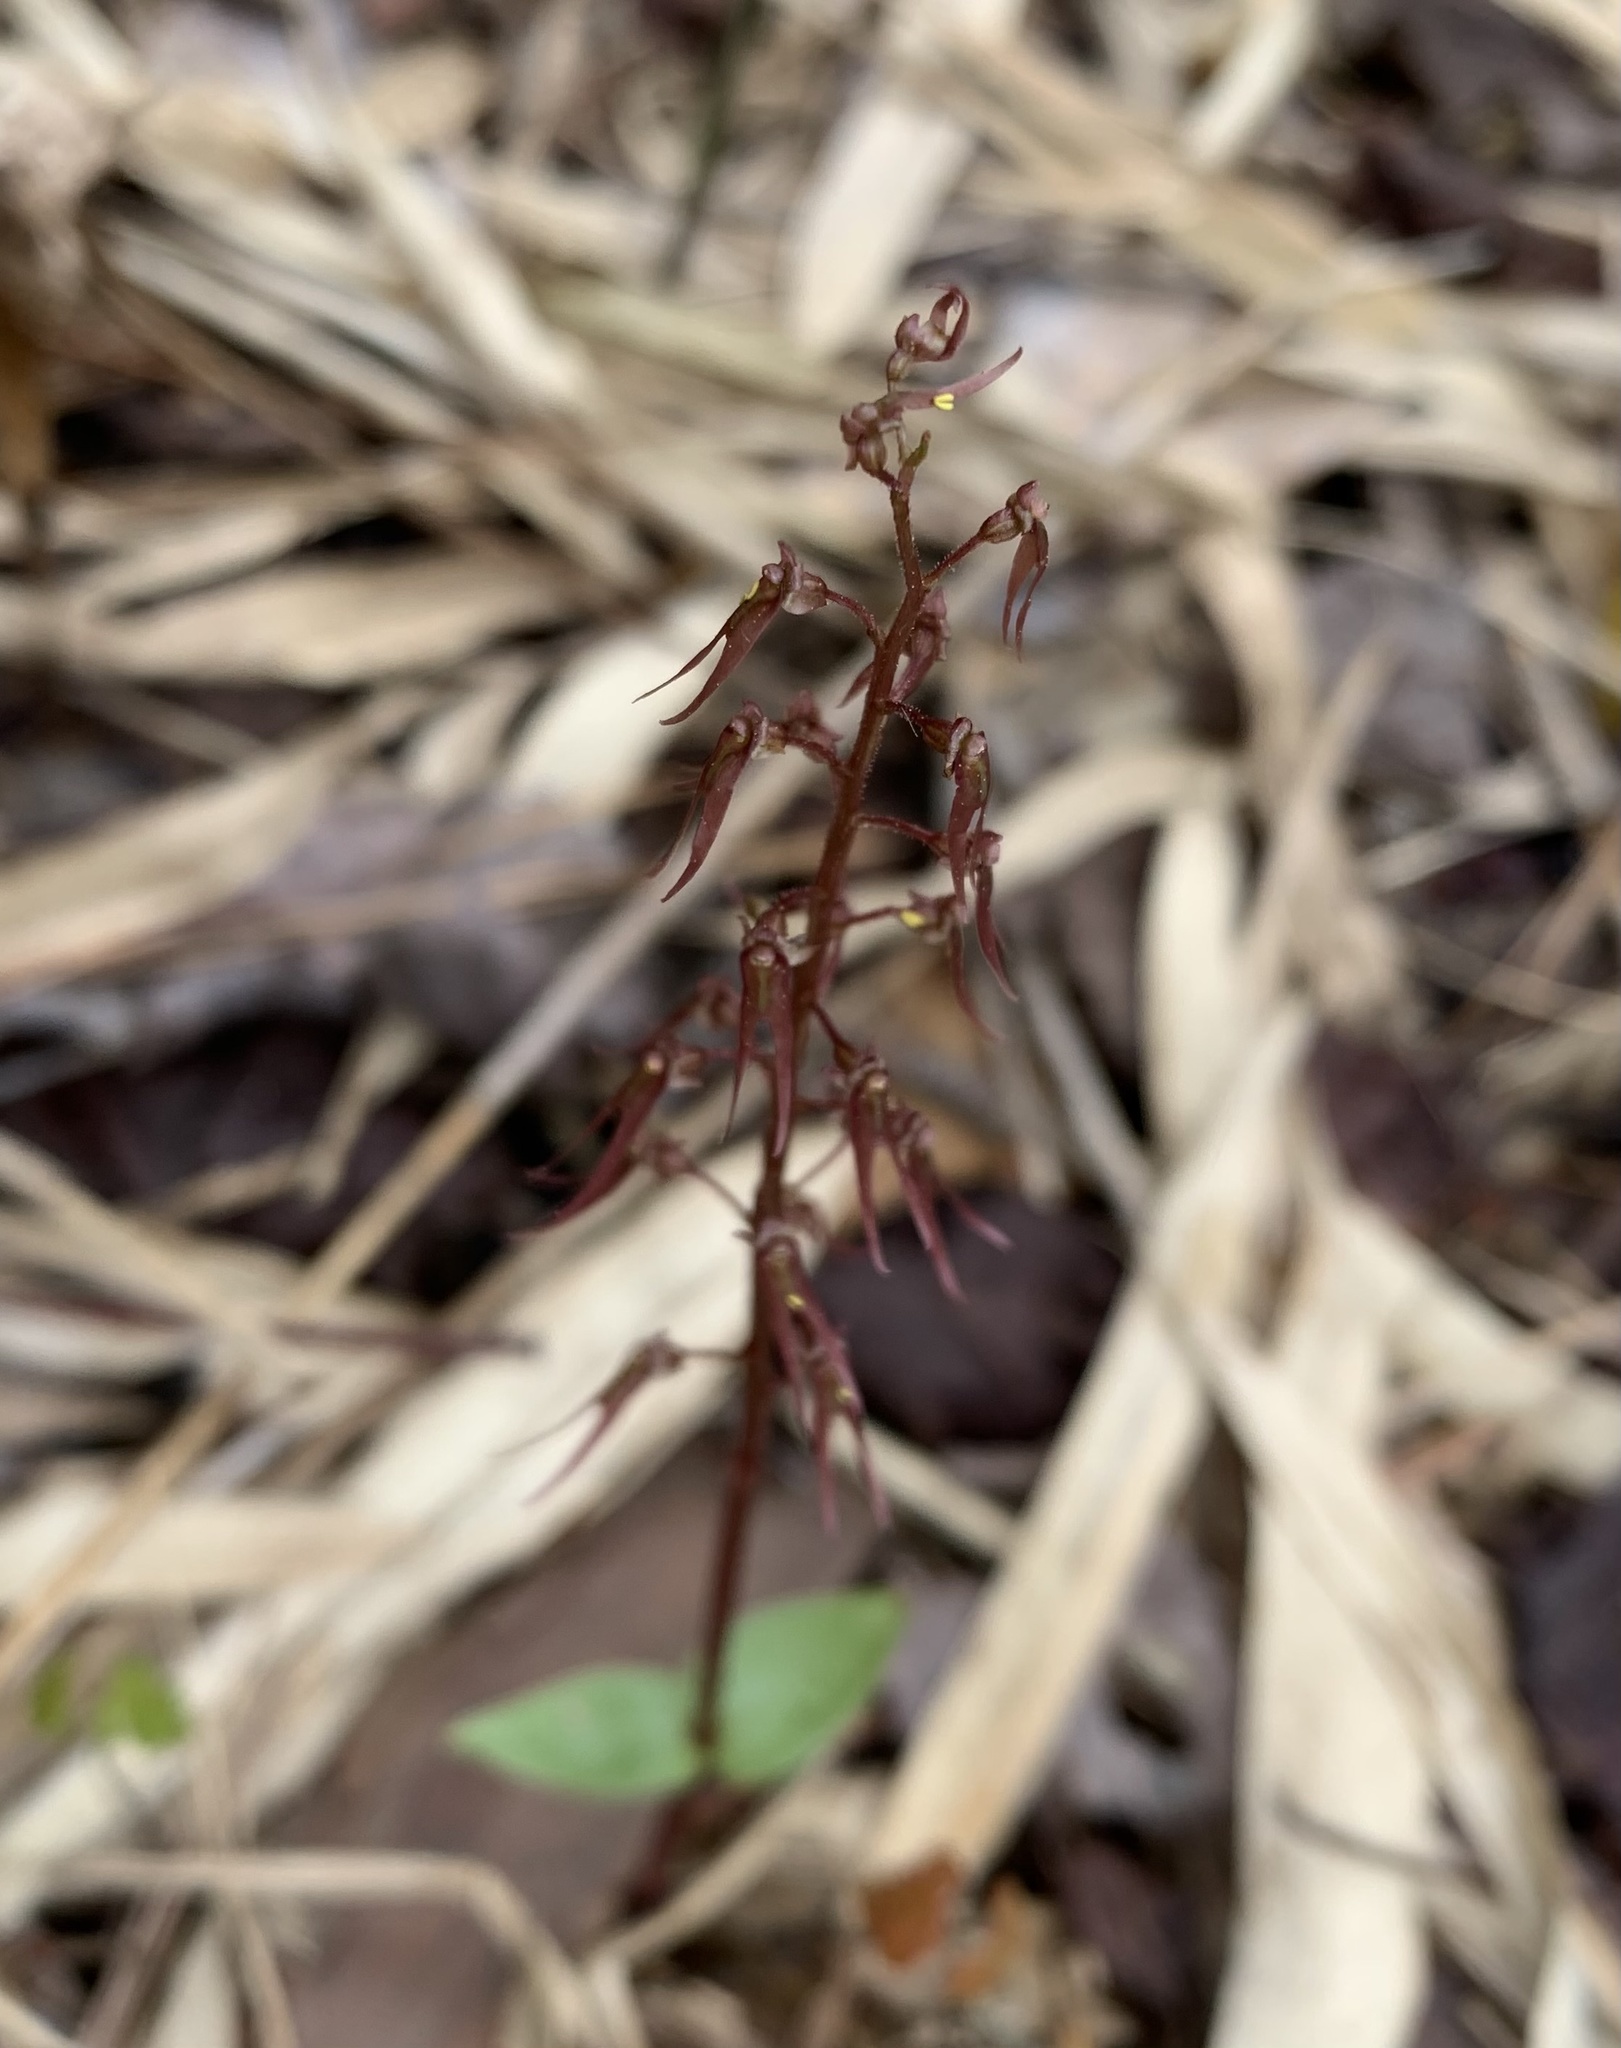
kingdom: Plantae
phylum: Tracheophyta
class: Liliopsida
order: Asparagales
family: Orchidaceae
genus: Neottia
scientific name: Neottia bifolia
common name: Southern twayblade
